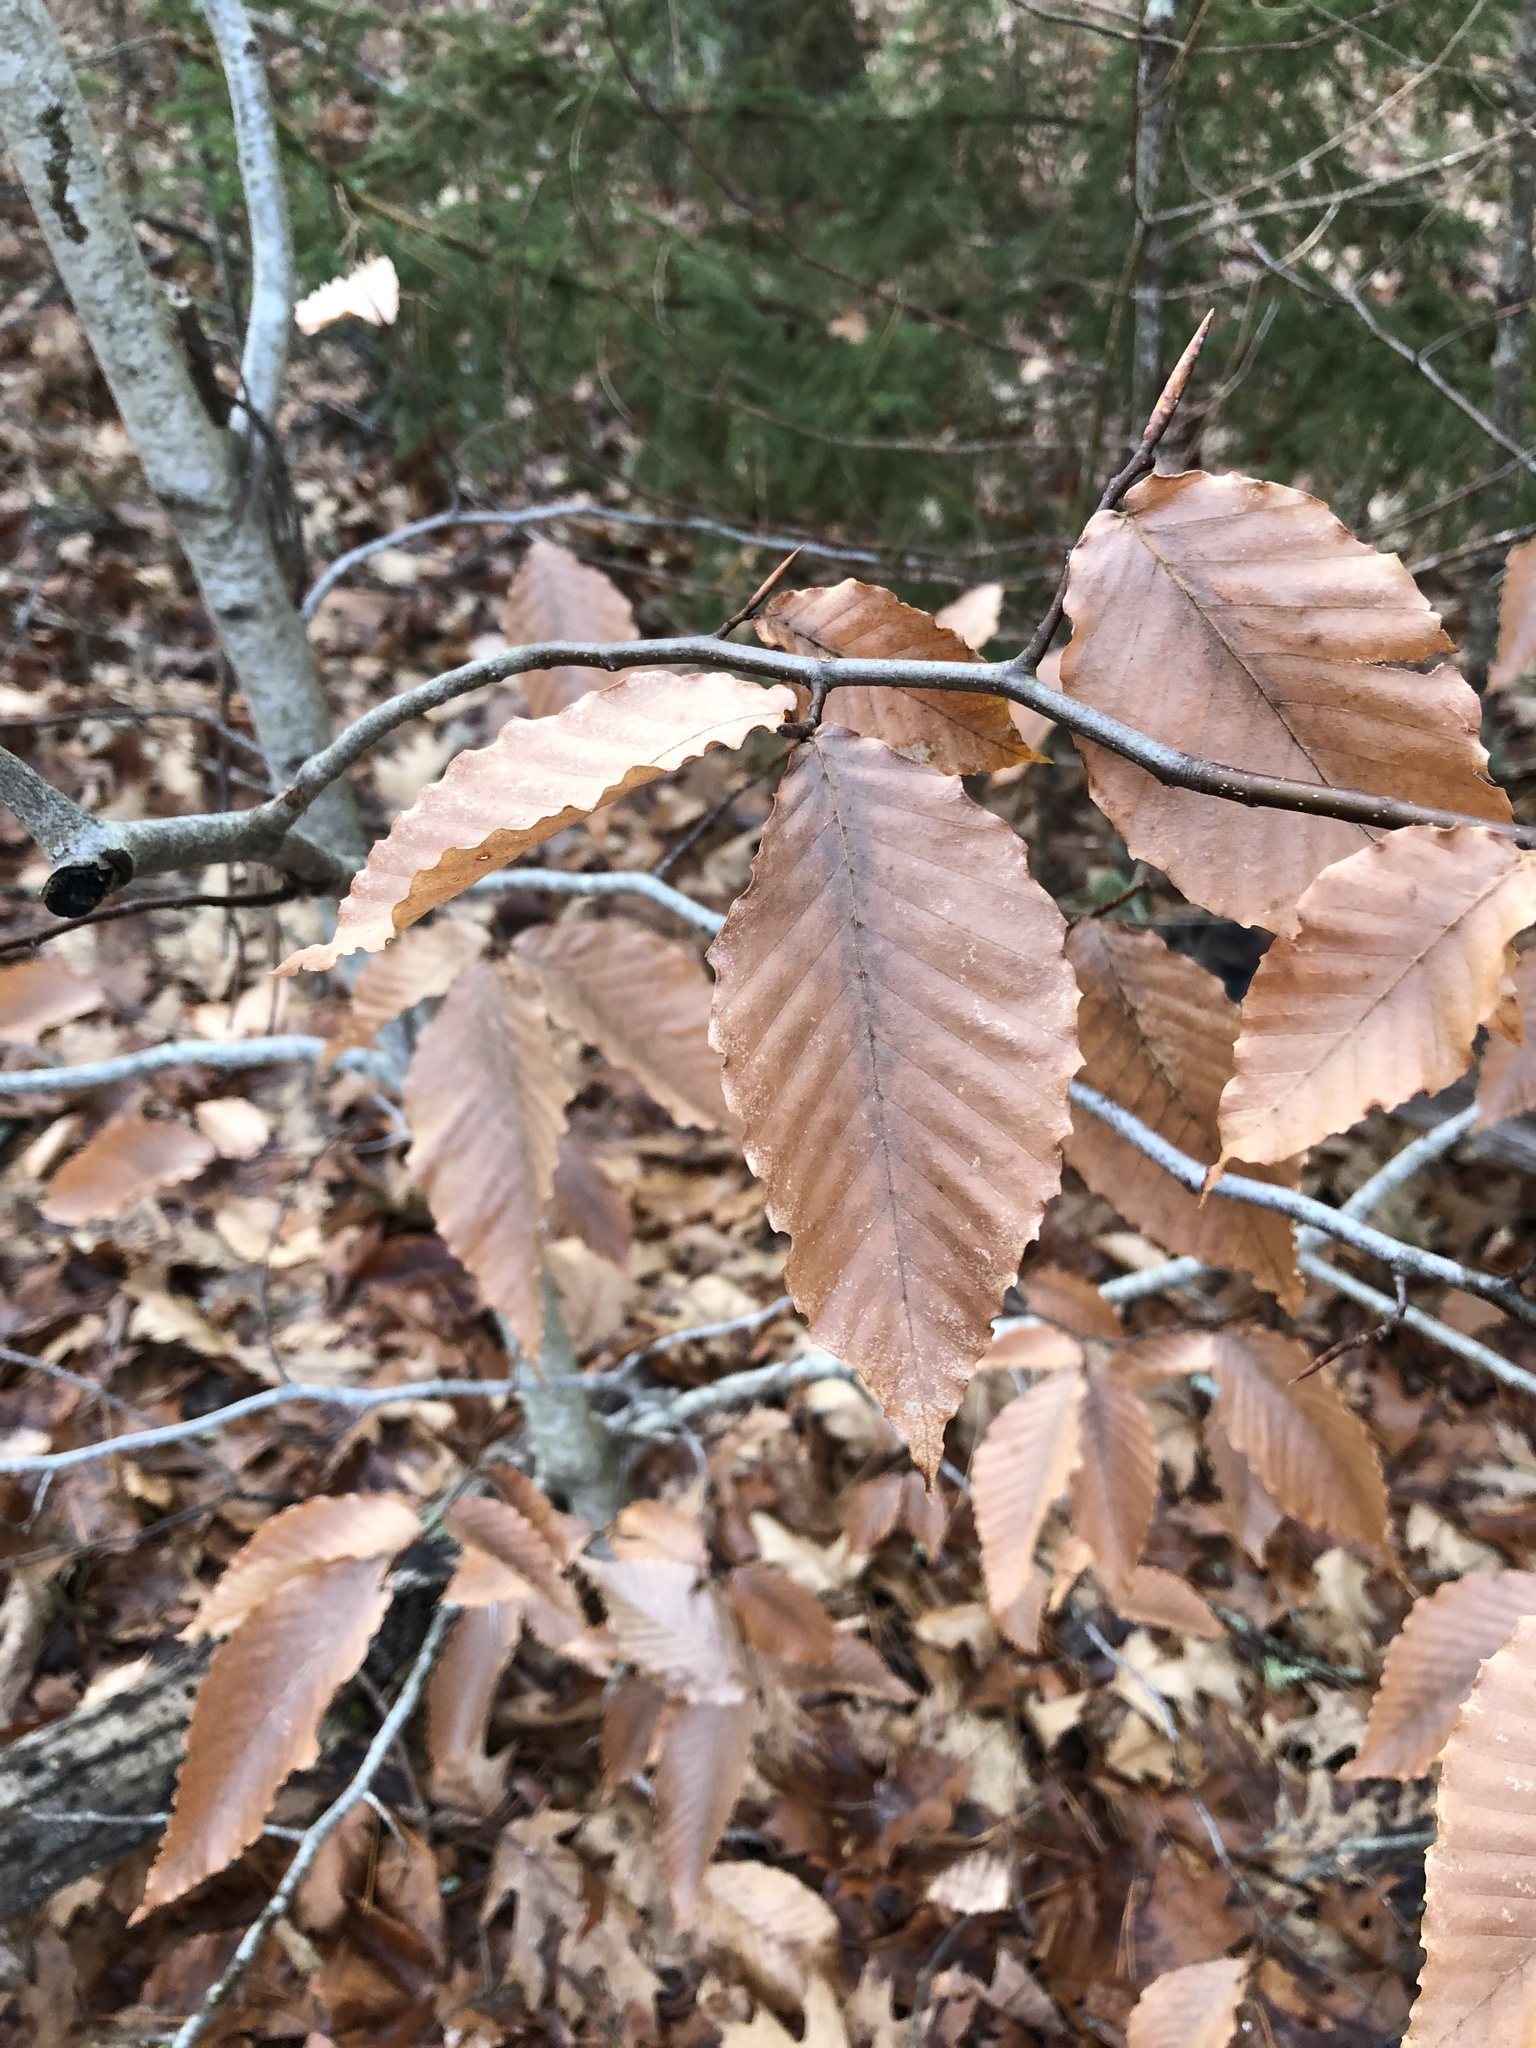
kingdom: Plantae
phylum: Tracheophyta
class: Magnoliopsida
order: Fagales
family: Fagaceae
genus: Fagus
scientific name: Fagus grandifolia
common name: American beech
